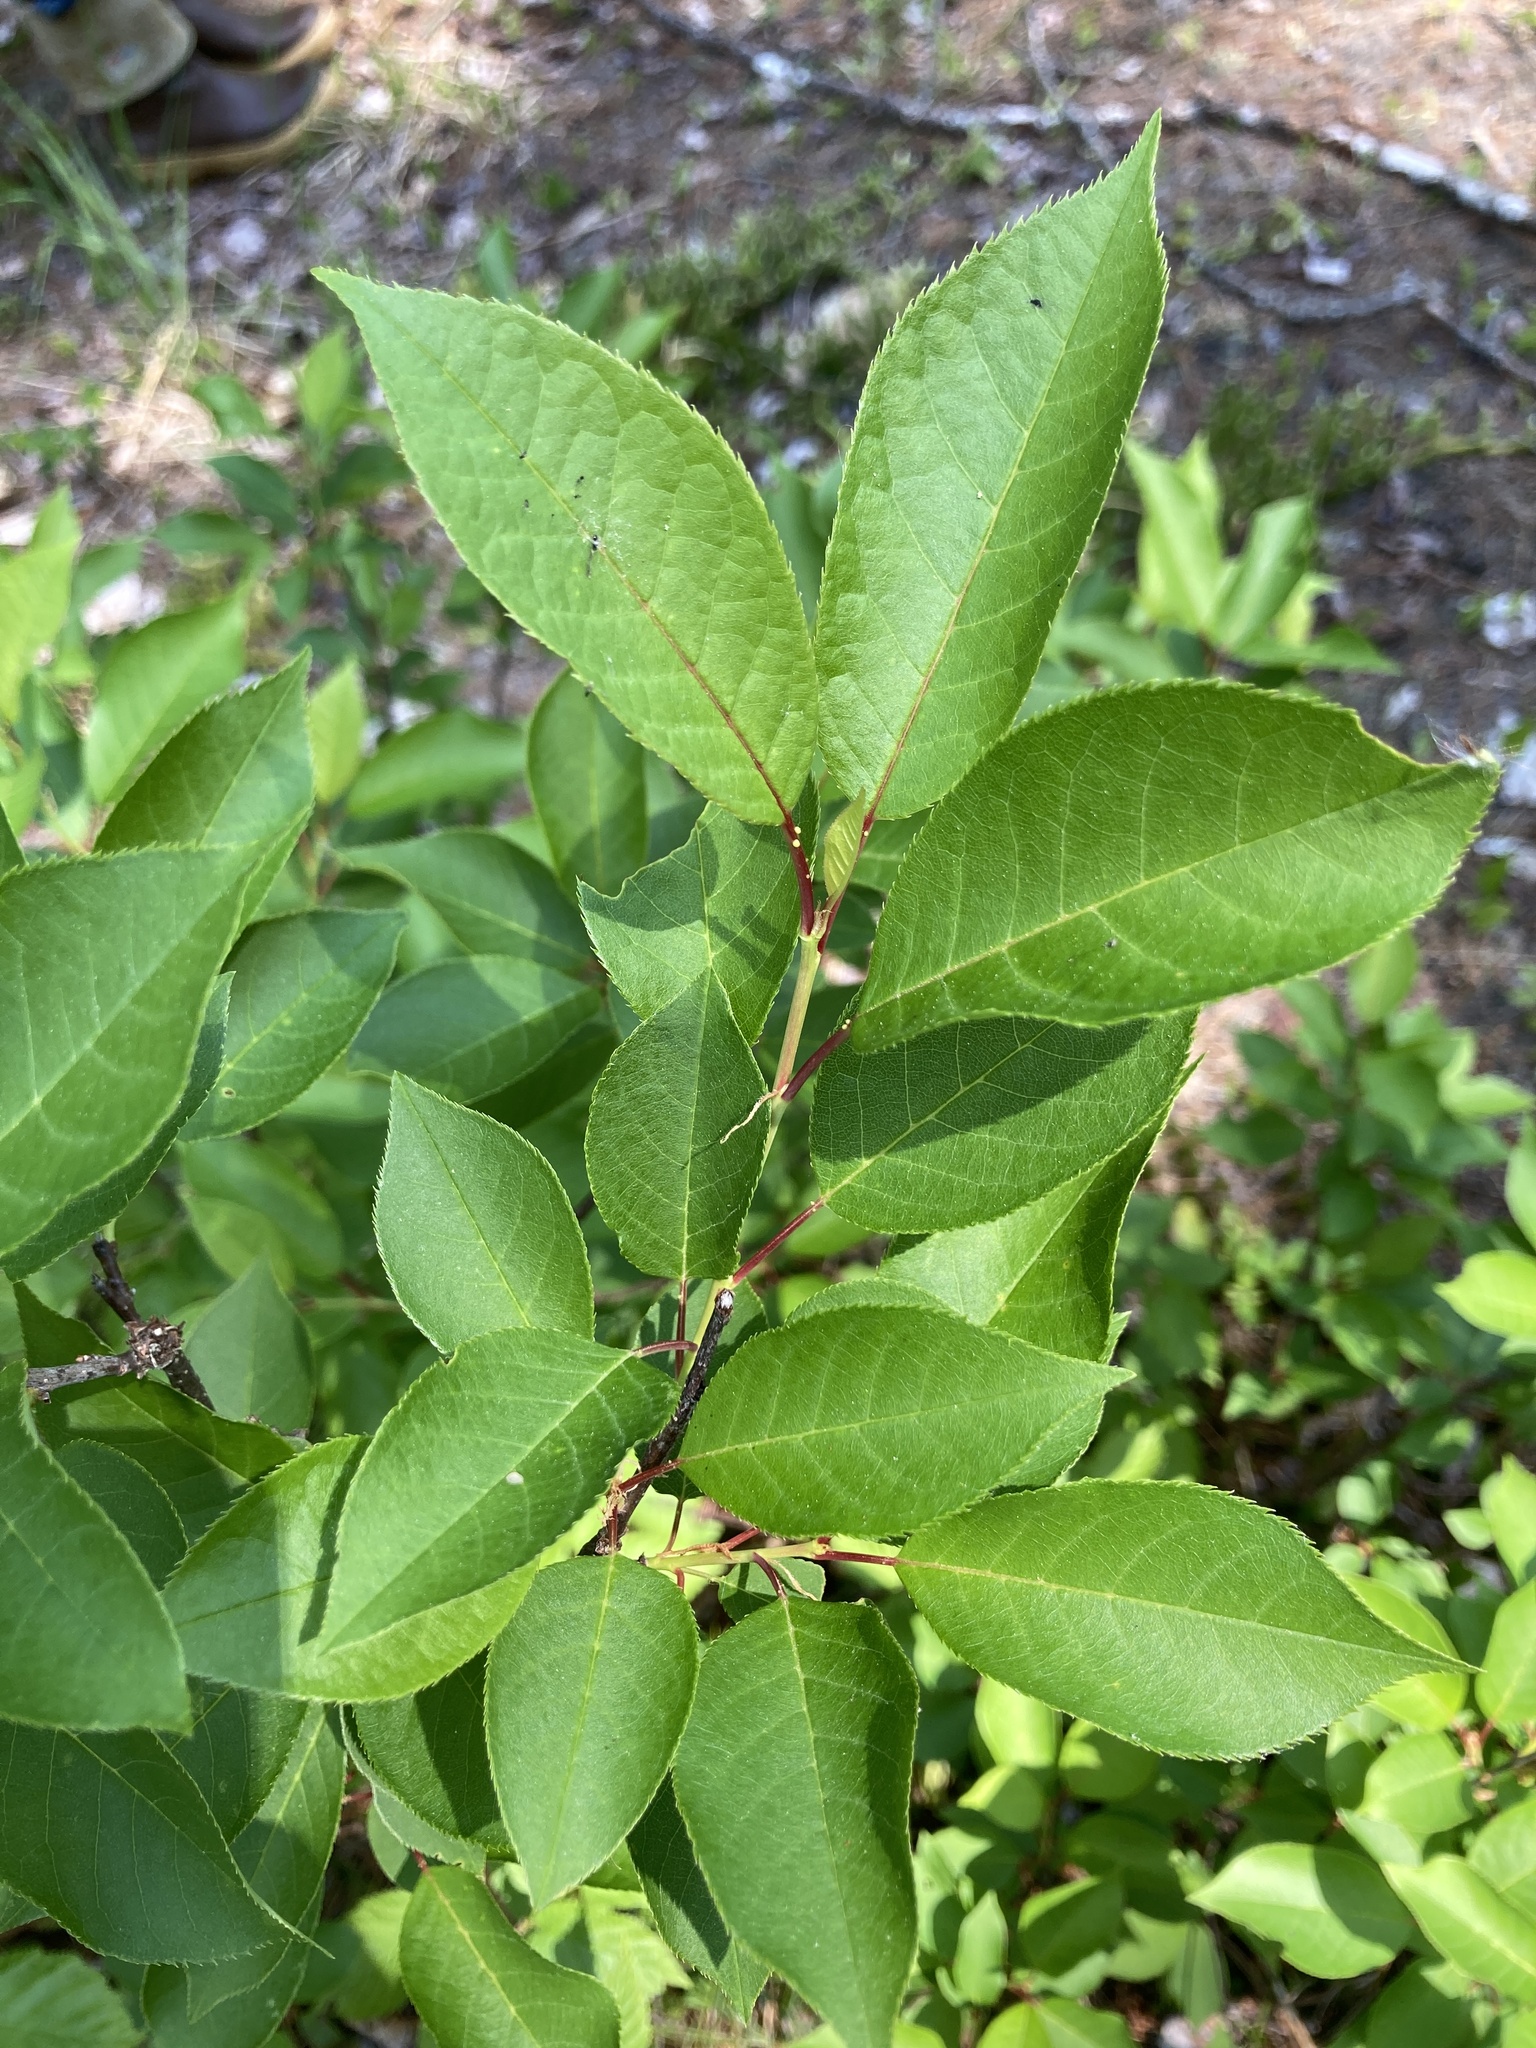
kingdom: Plantae
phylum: Tracheophyta
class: Magnoliopsida
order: Rosales
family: Rosaceae
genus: Prunus
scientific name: Prunus virginiana
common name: Chokecherry
